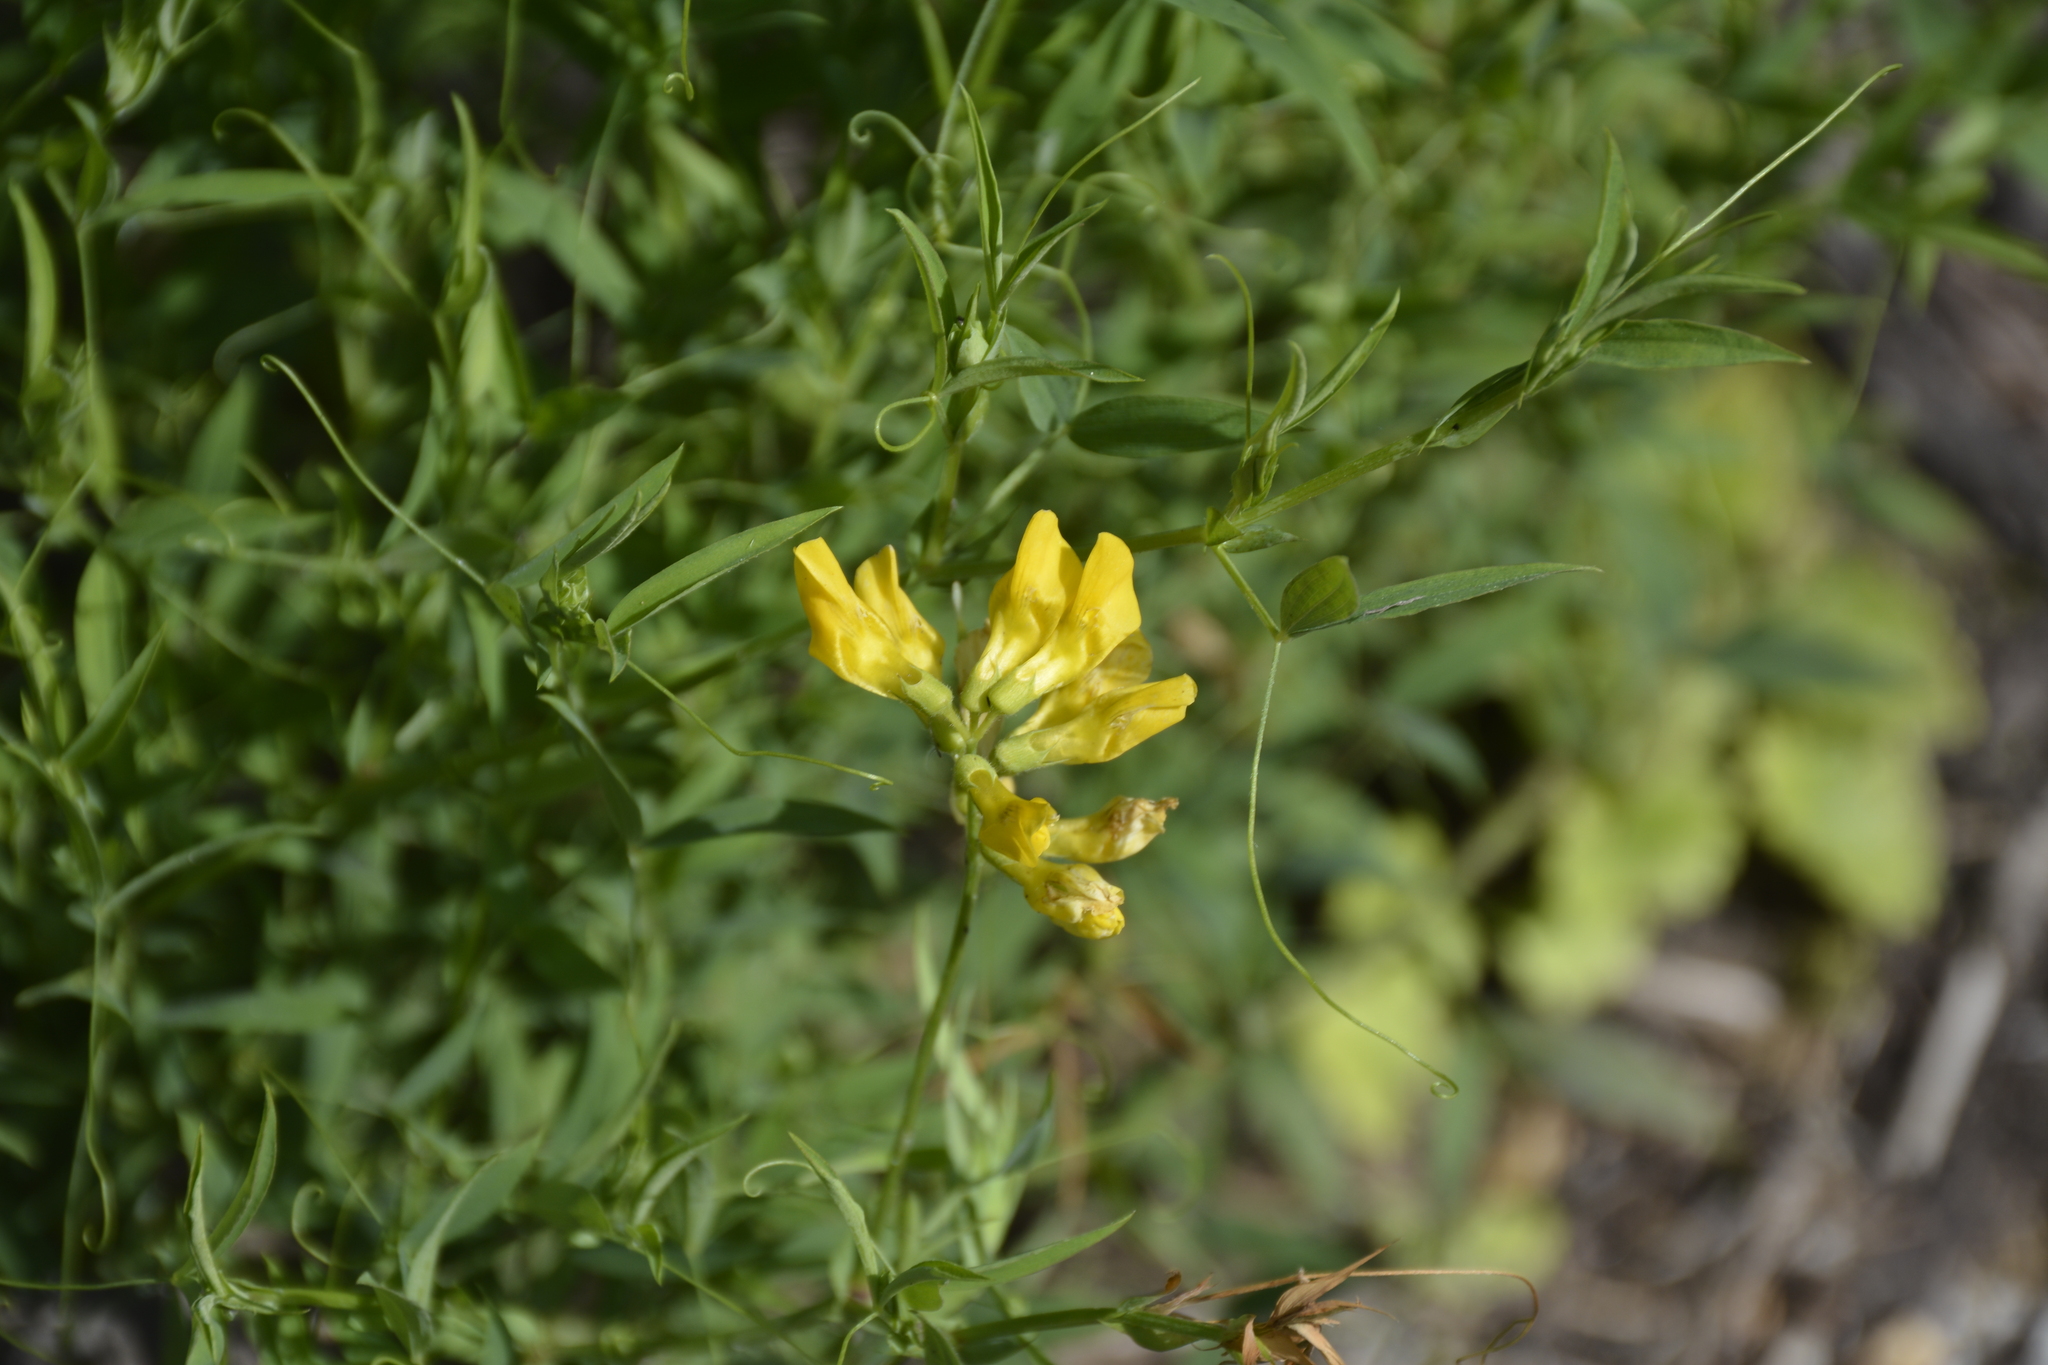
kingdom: Plantae
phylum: Tracheophyta
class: Magnoliopsida
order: Fabales
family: Fabaceae
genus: Lathyrus
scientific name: Lathyrus pratensis
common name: Meadow vetchling
